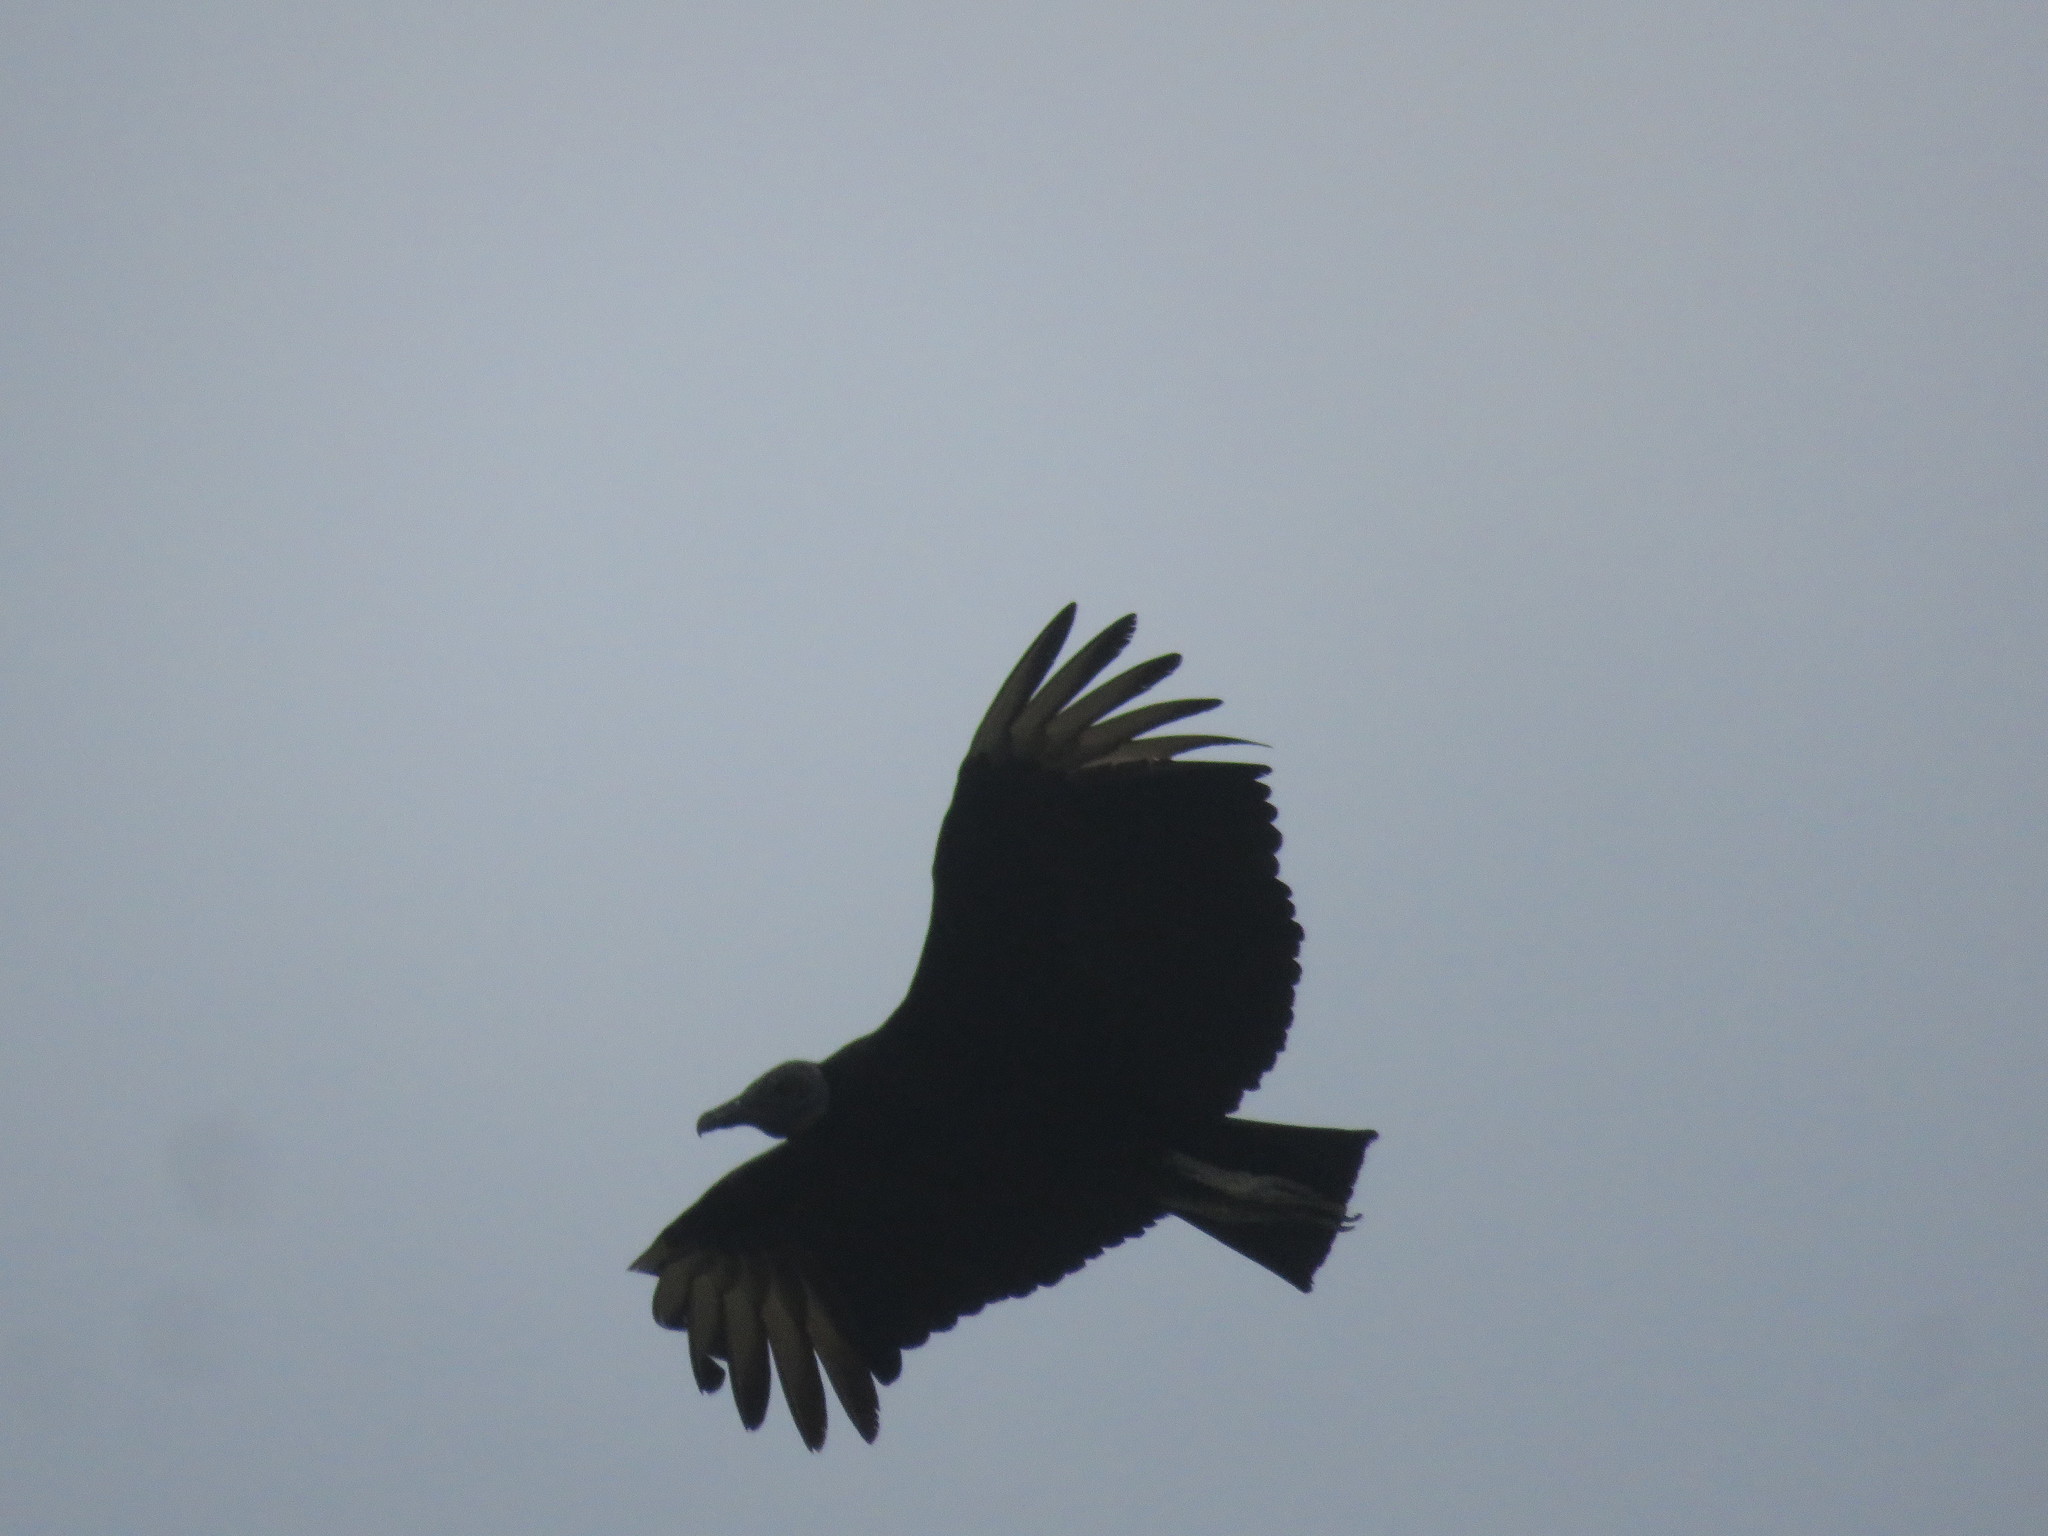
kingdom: Animalia
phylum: Chordata
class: Aves
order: Accipitriformes
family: Cathartidae
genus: Coragyps
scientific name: Coragyps atratus
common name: Black vulture
